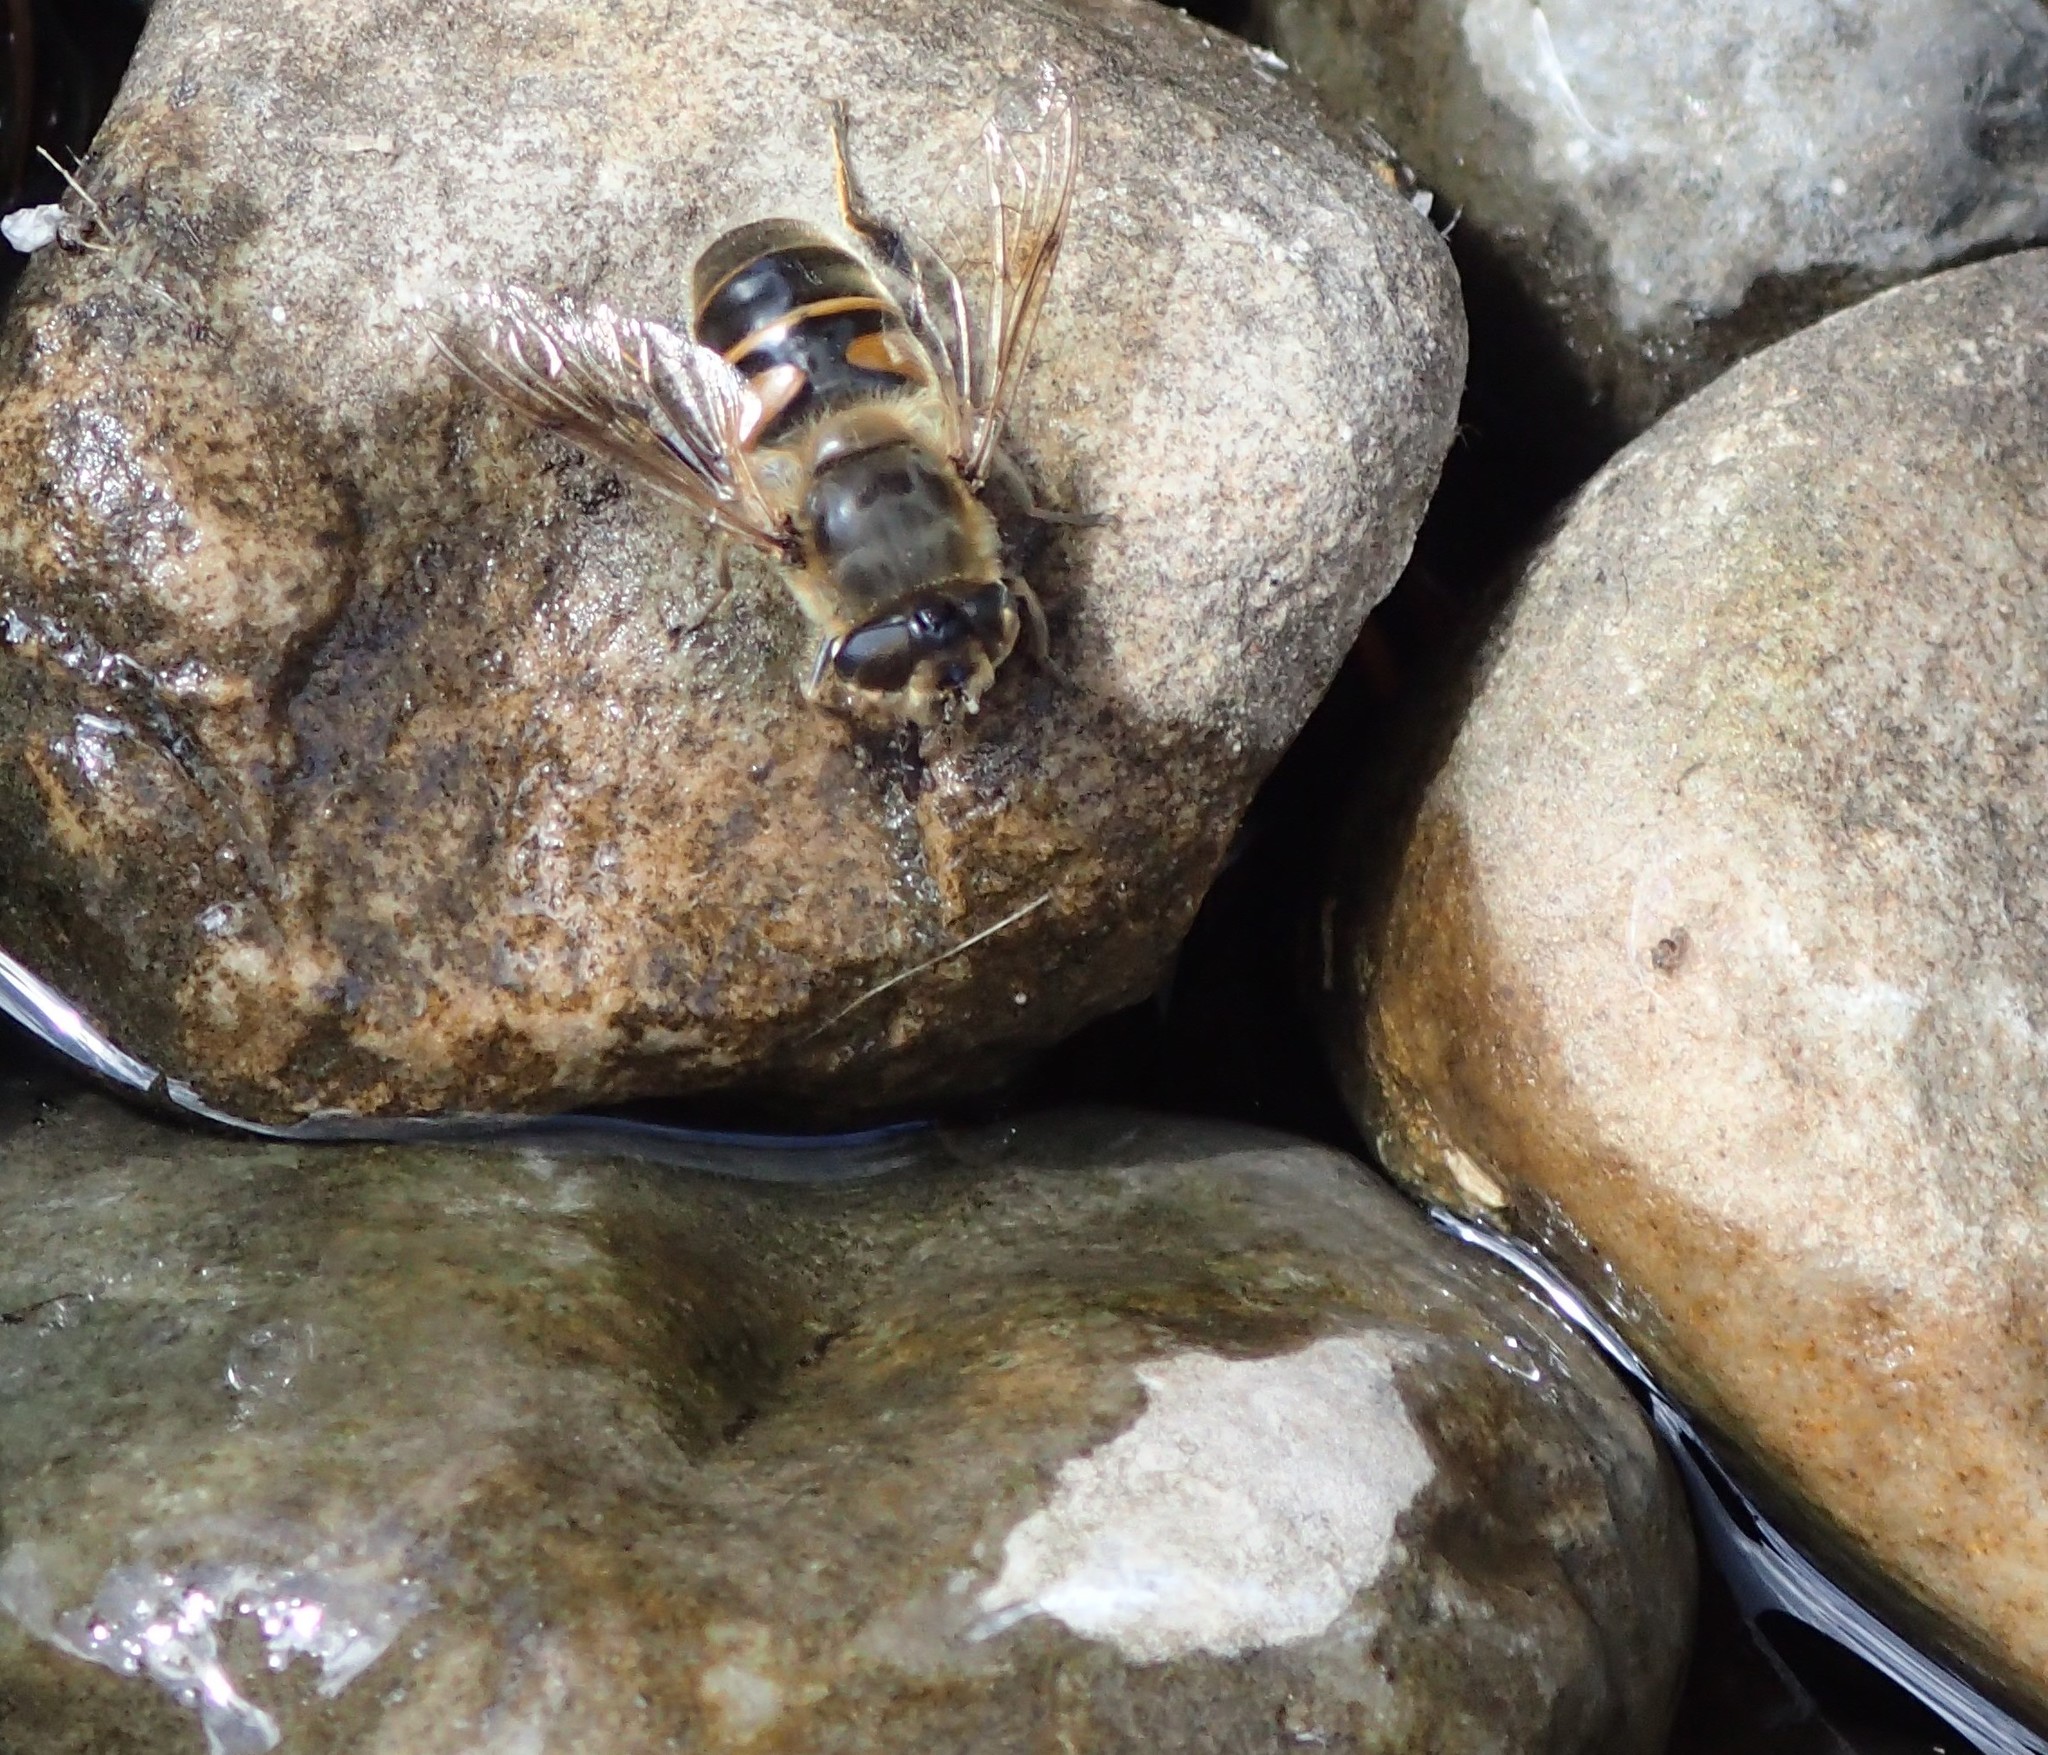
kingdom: Animalia
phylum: Arthropoda
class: Insecta
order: Diptera
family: Syrphidae
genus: Eristalis
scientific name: Eristalis tenax
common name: Drone fly
